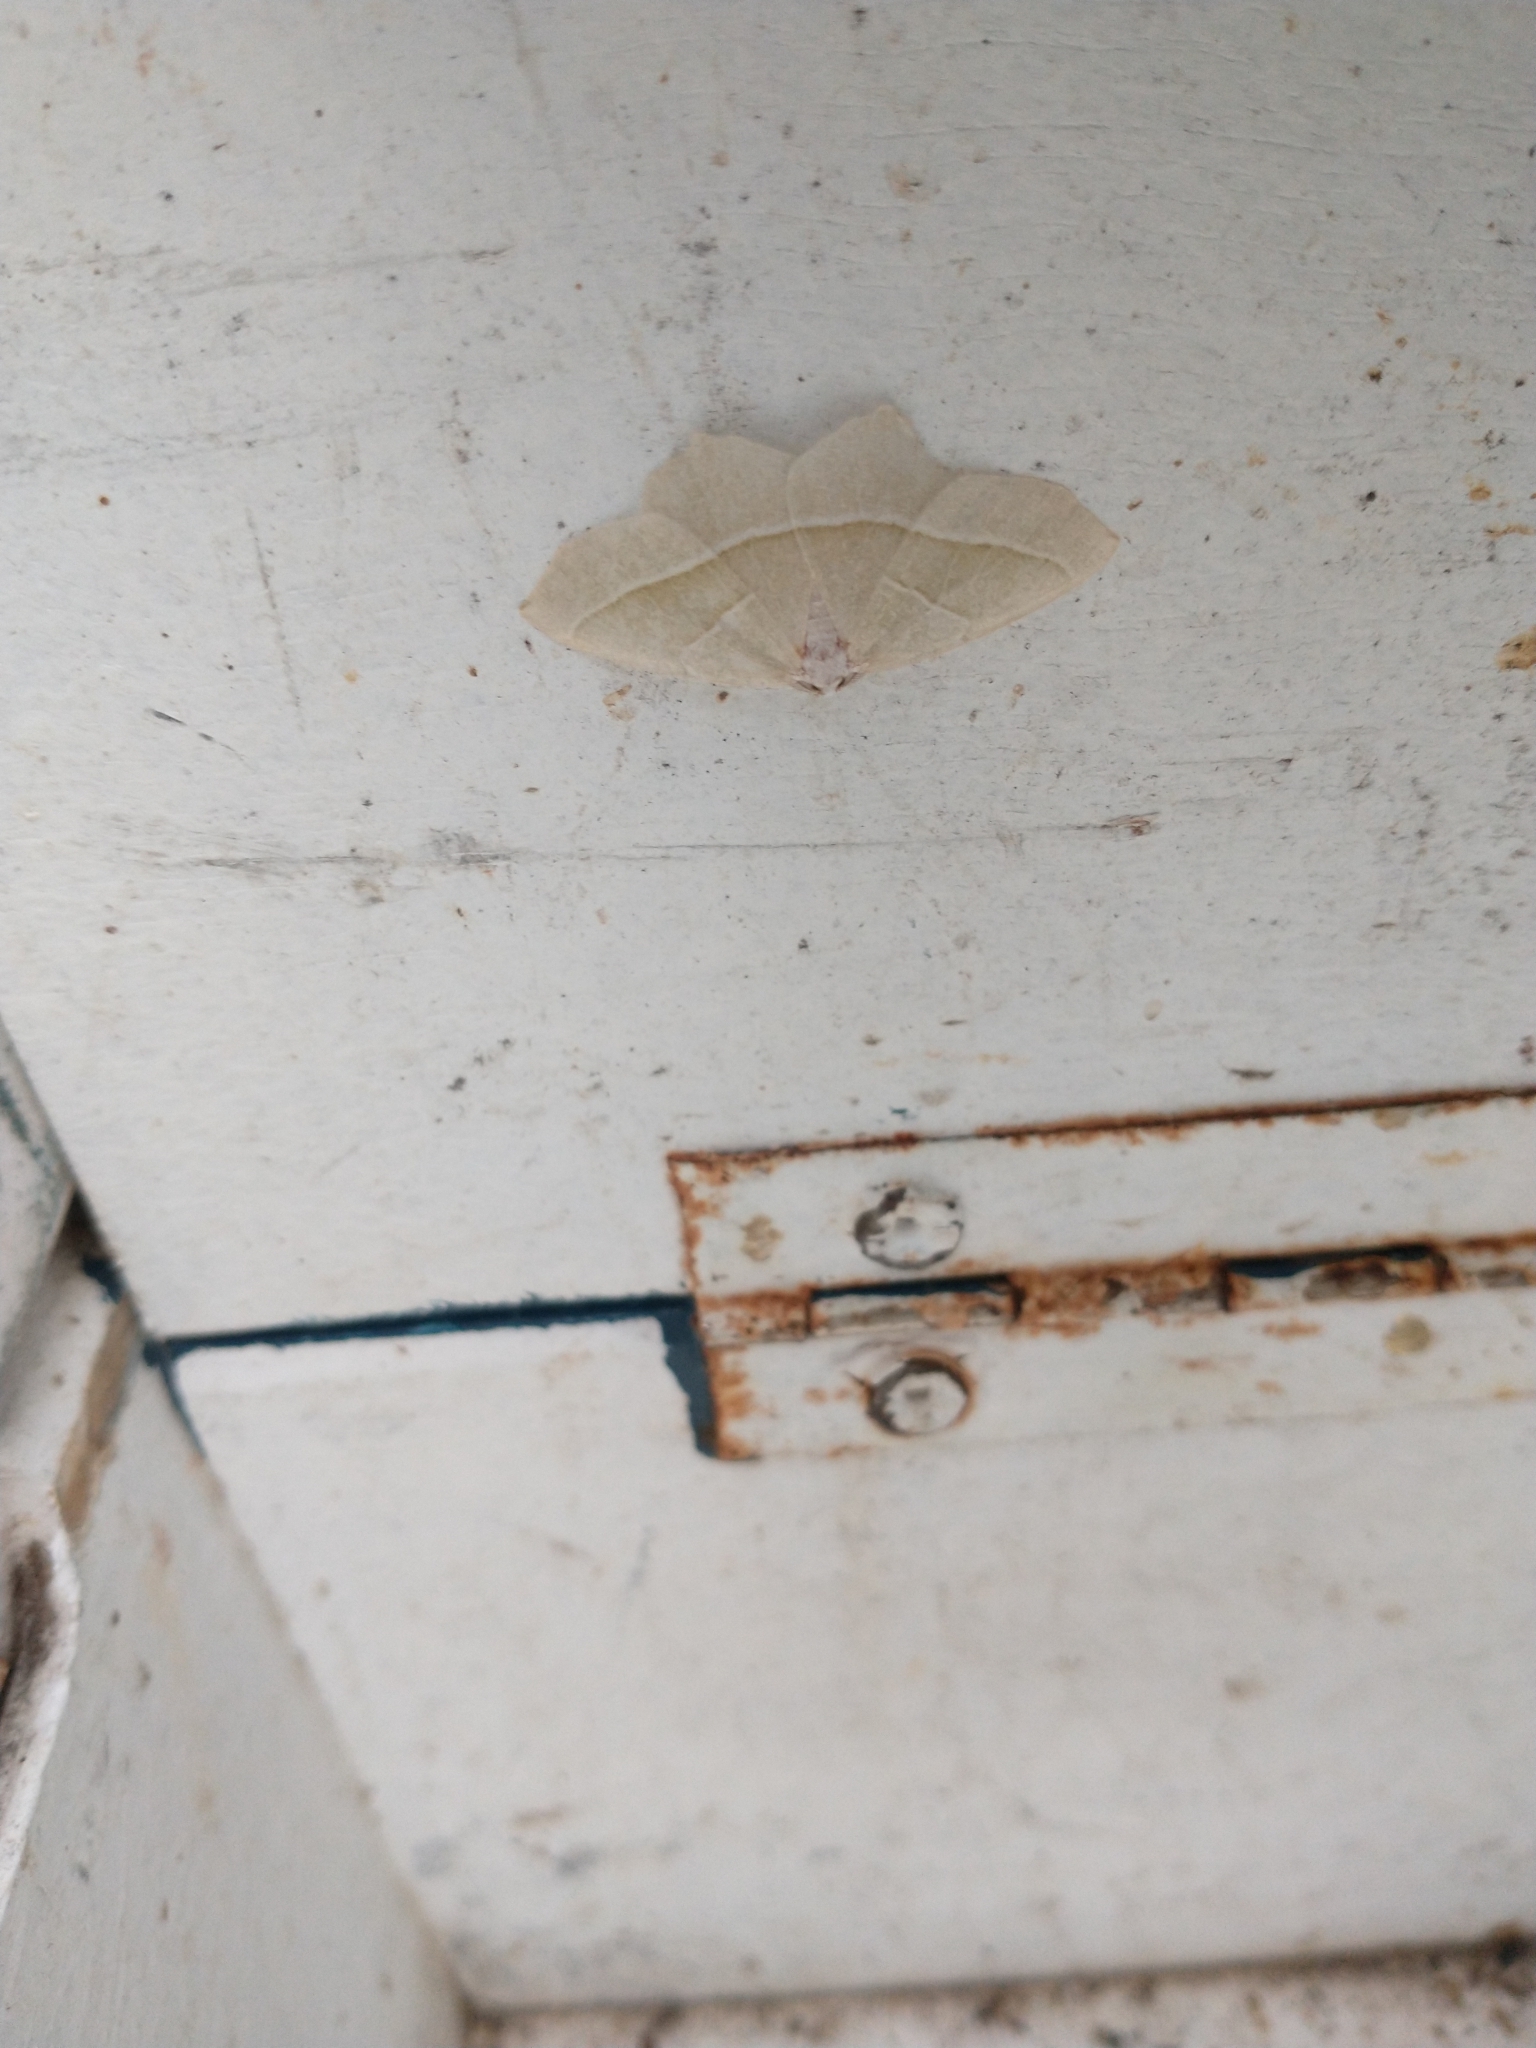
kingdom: Animalia
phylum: Arthropoda
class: Insecta
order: Lepidoptera
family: Geometridae
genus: Campaea
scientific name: Campaea margaritaria
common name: Light emerald
